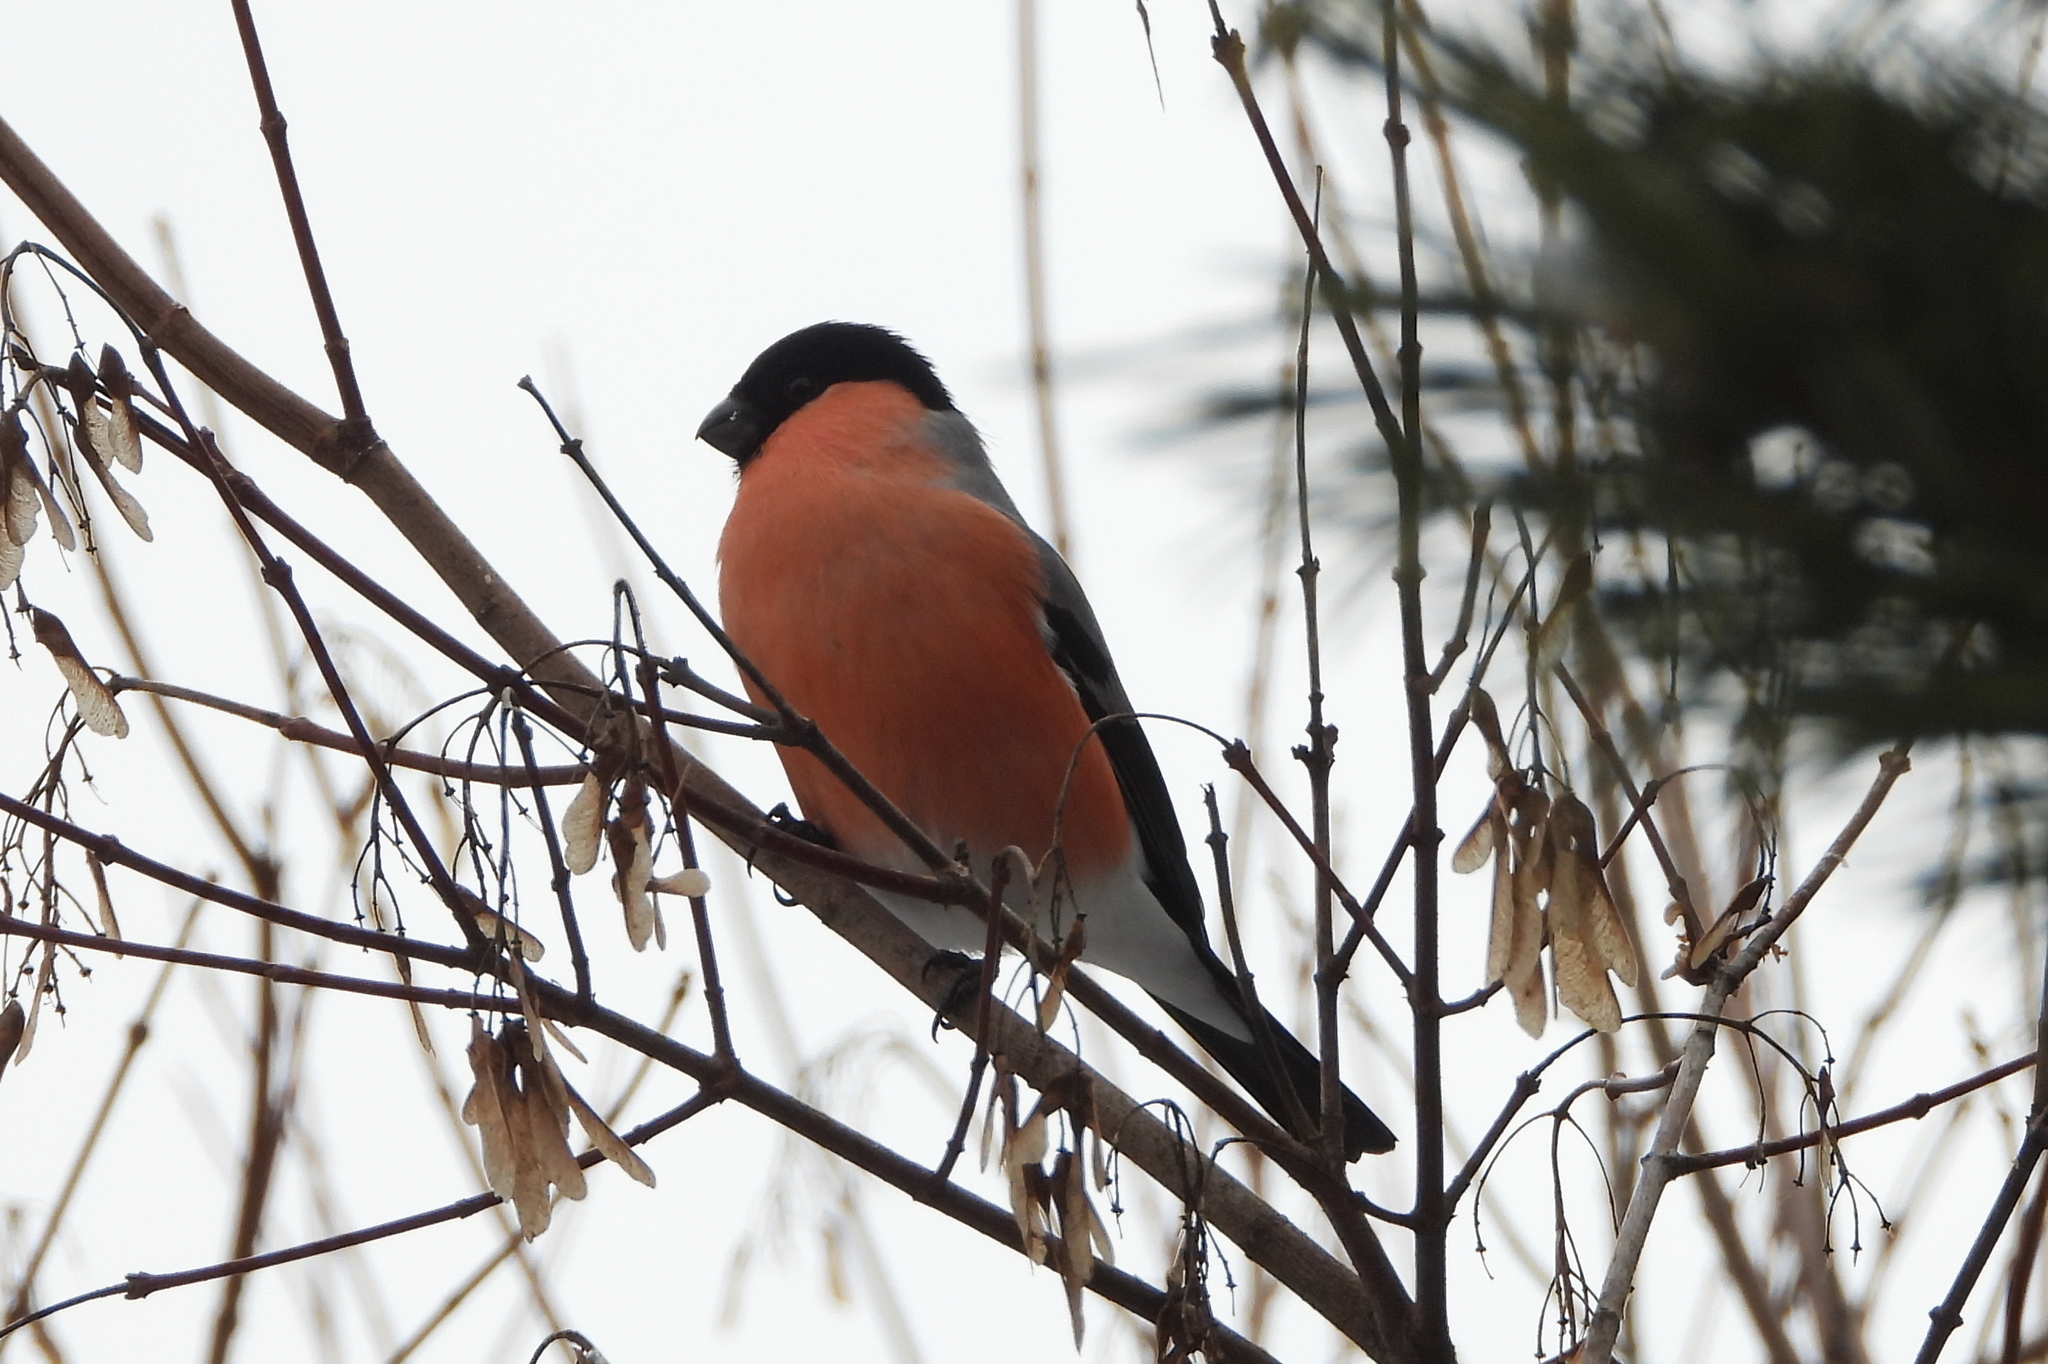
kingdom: Animalia
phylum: Chordata
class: Aves
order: Passeriformes
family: Fringillidae
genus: Pyrrhula
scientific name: Pyrrhula pyrrhula
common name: Eurasian bullfinch
